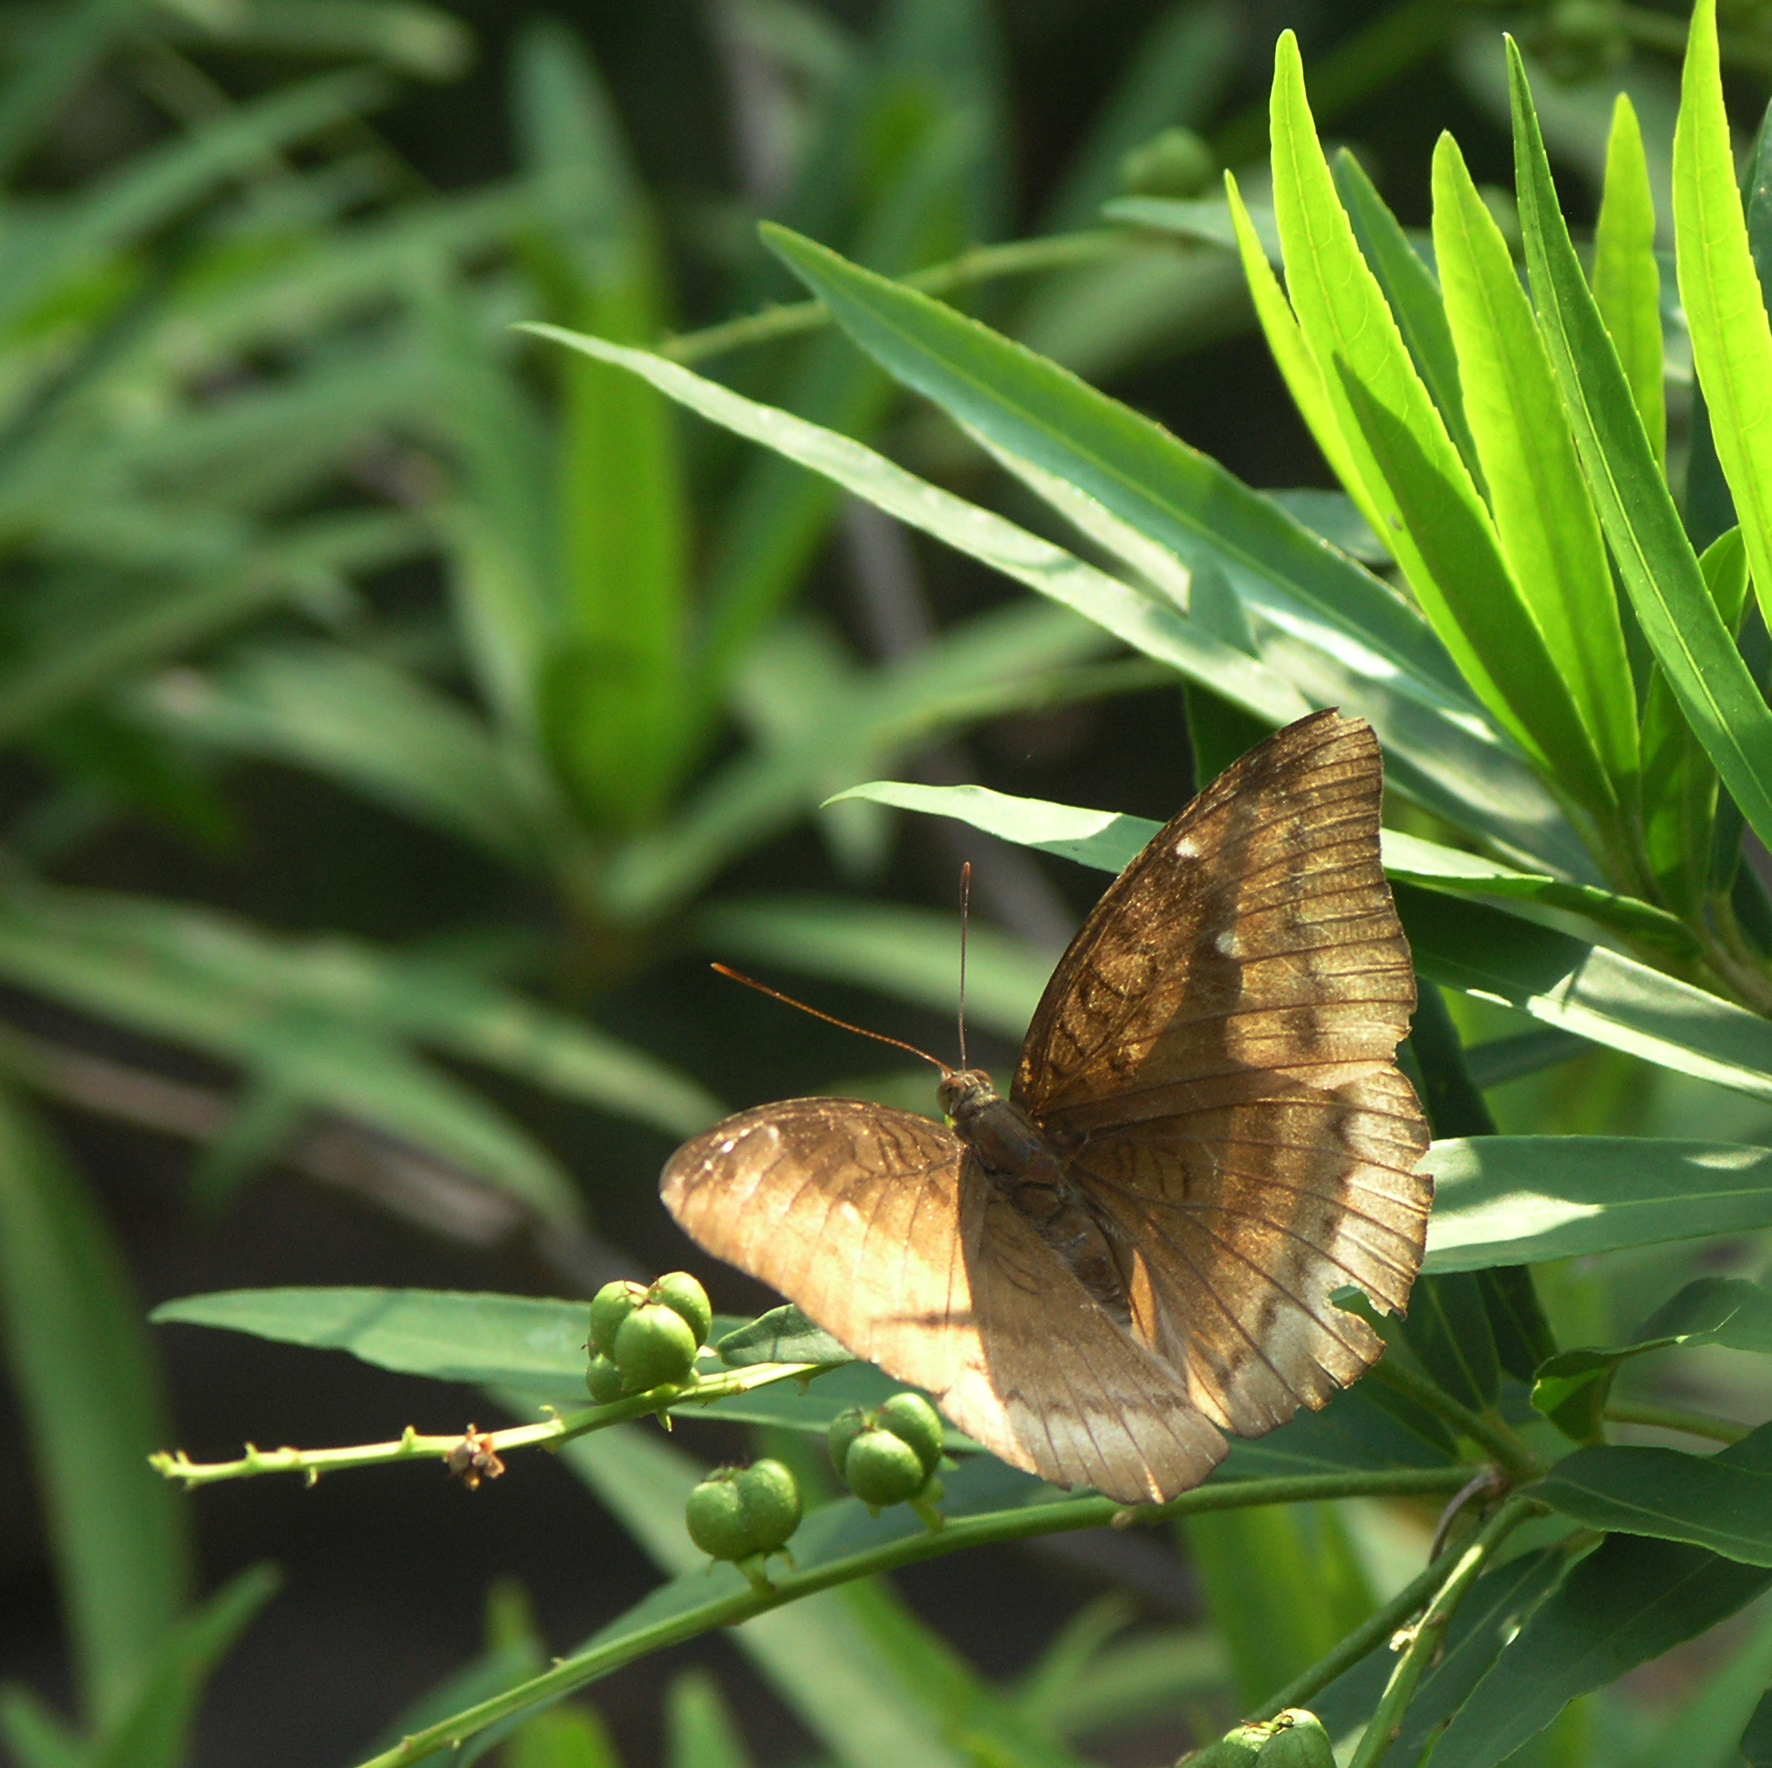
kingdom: Animalia
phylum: Arthropoda
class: Insecta
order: Lepidoptera
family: Nymphalidae
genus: Euthalia
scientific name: Euthalia monina
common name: Powdered baron
